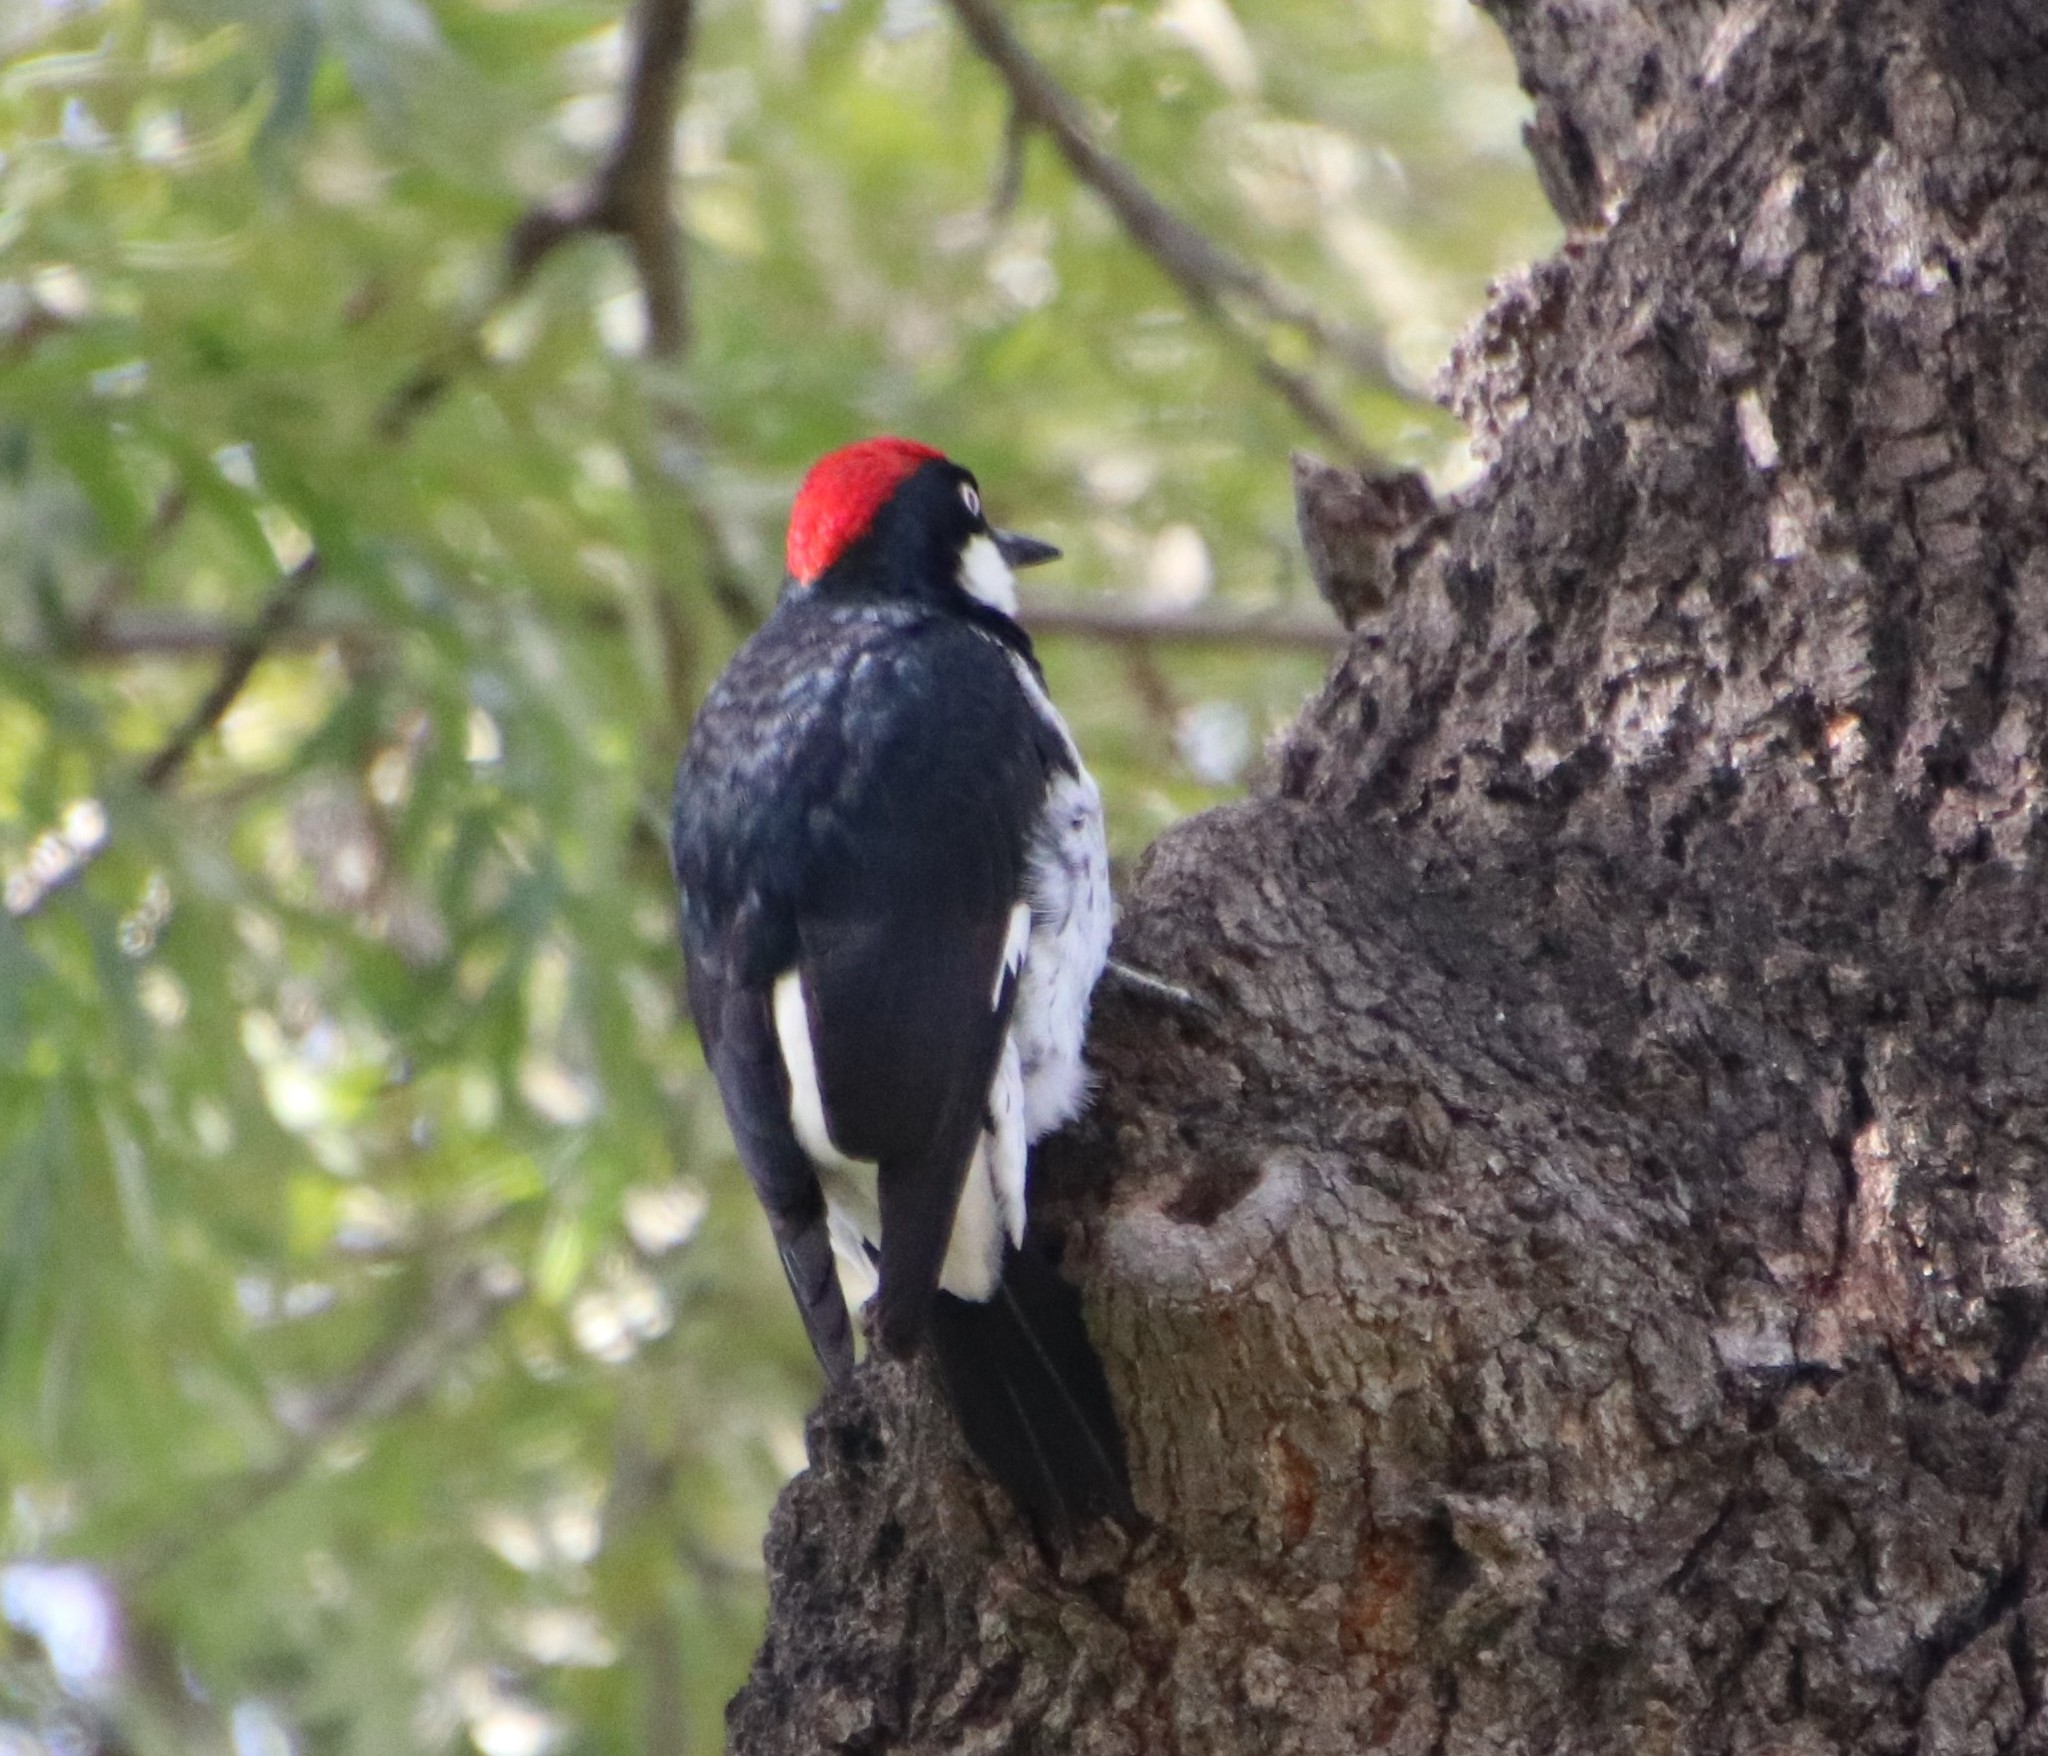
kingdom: Animalia
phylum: Chordata
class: Aves
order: Piciformes
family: Picidae
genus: Melanerpes
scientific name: Melanerpes formicivorus
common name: Acorn woodpecker
